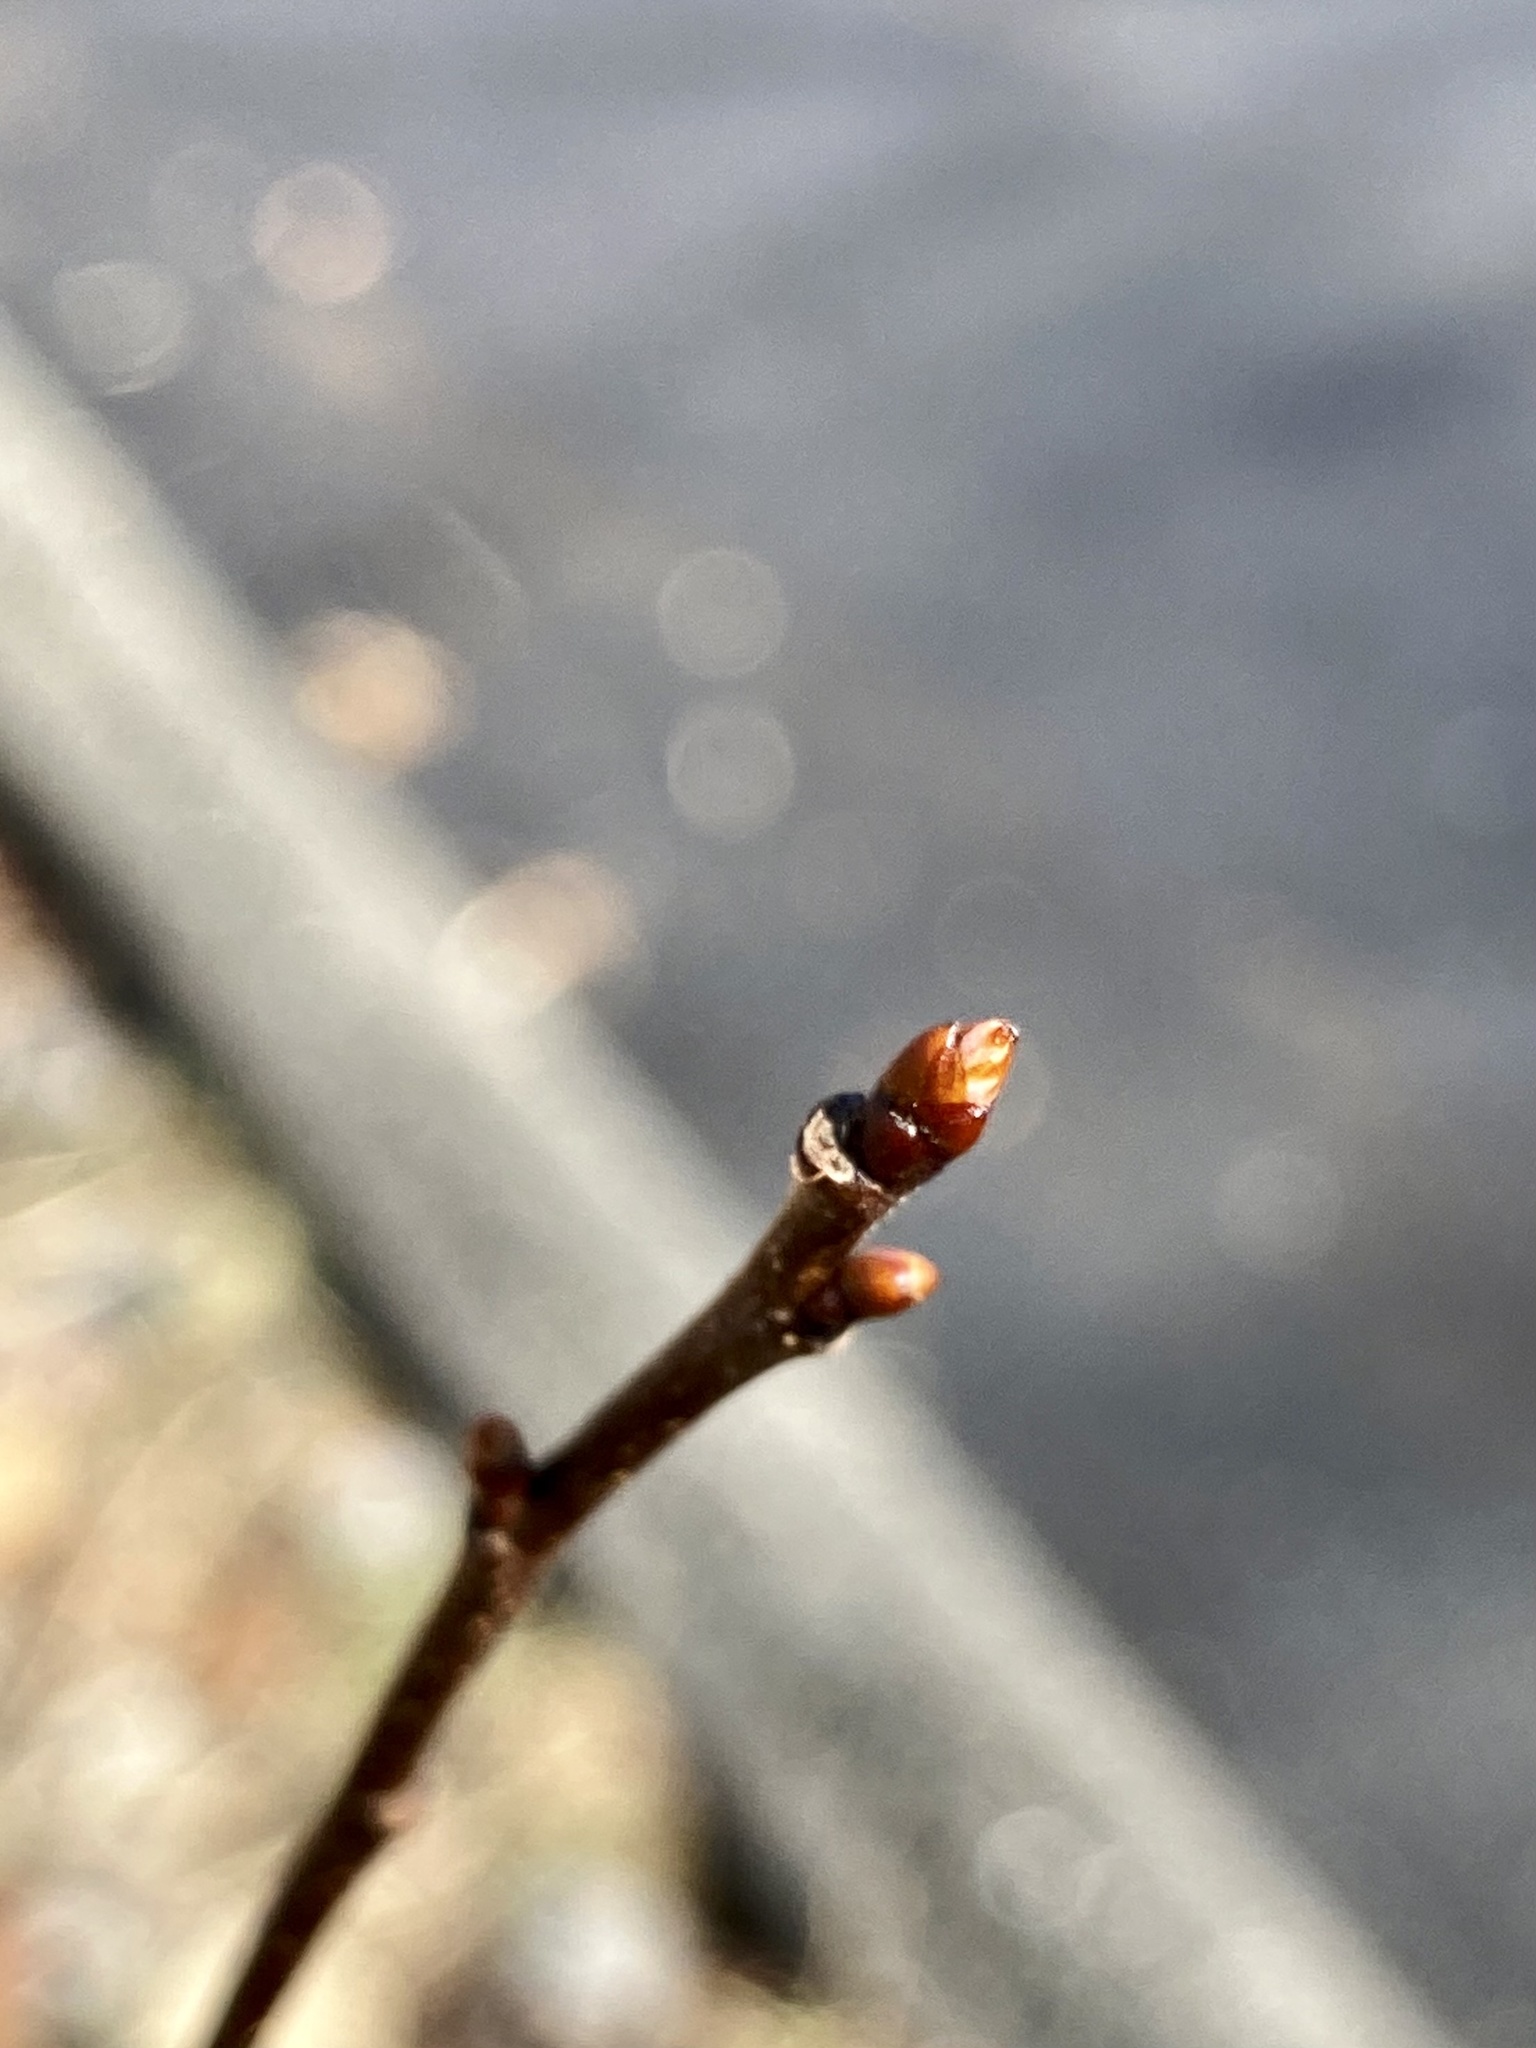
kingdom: Plantae
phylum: Tracheophyta
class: Magnoliopsida
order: Rosales
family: Rosaceae
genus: Prunus
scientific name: Prunus serotina
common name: Black cherry
